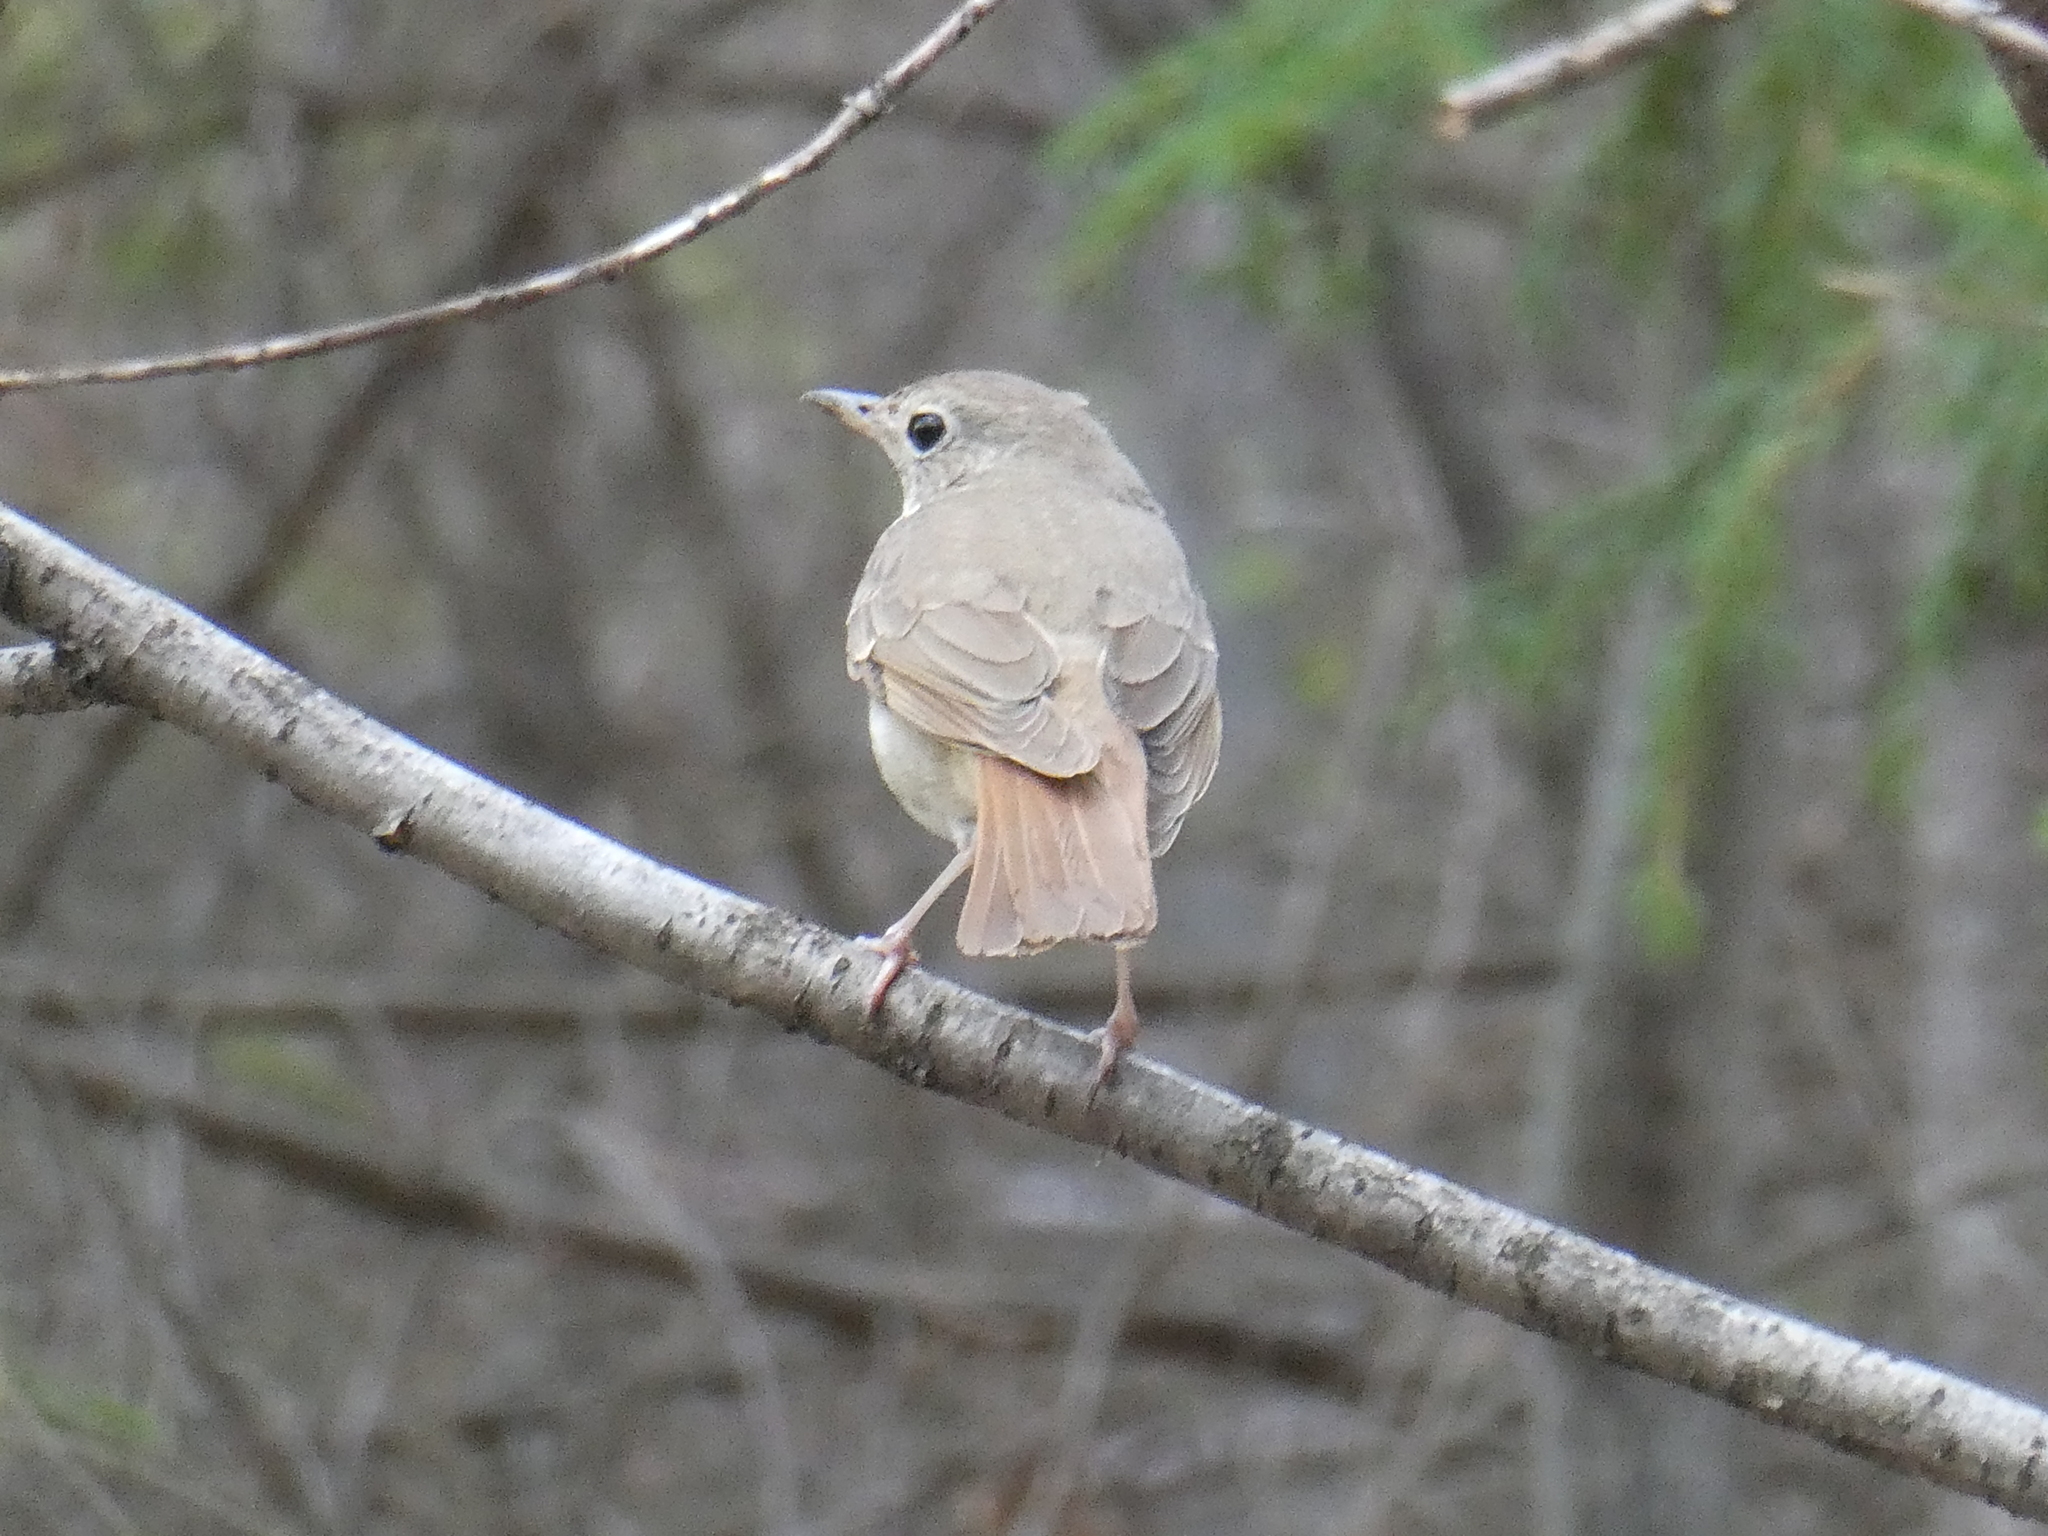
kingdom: Animalia
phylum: Chordata
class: Aves
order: Passeriformes
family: Turdidae
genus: Catharus
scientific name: Catharus guttatus
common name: Hermit thrush
